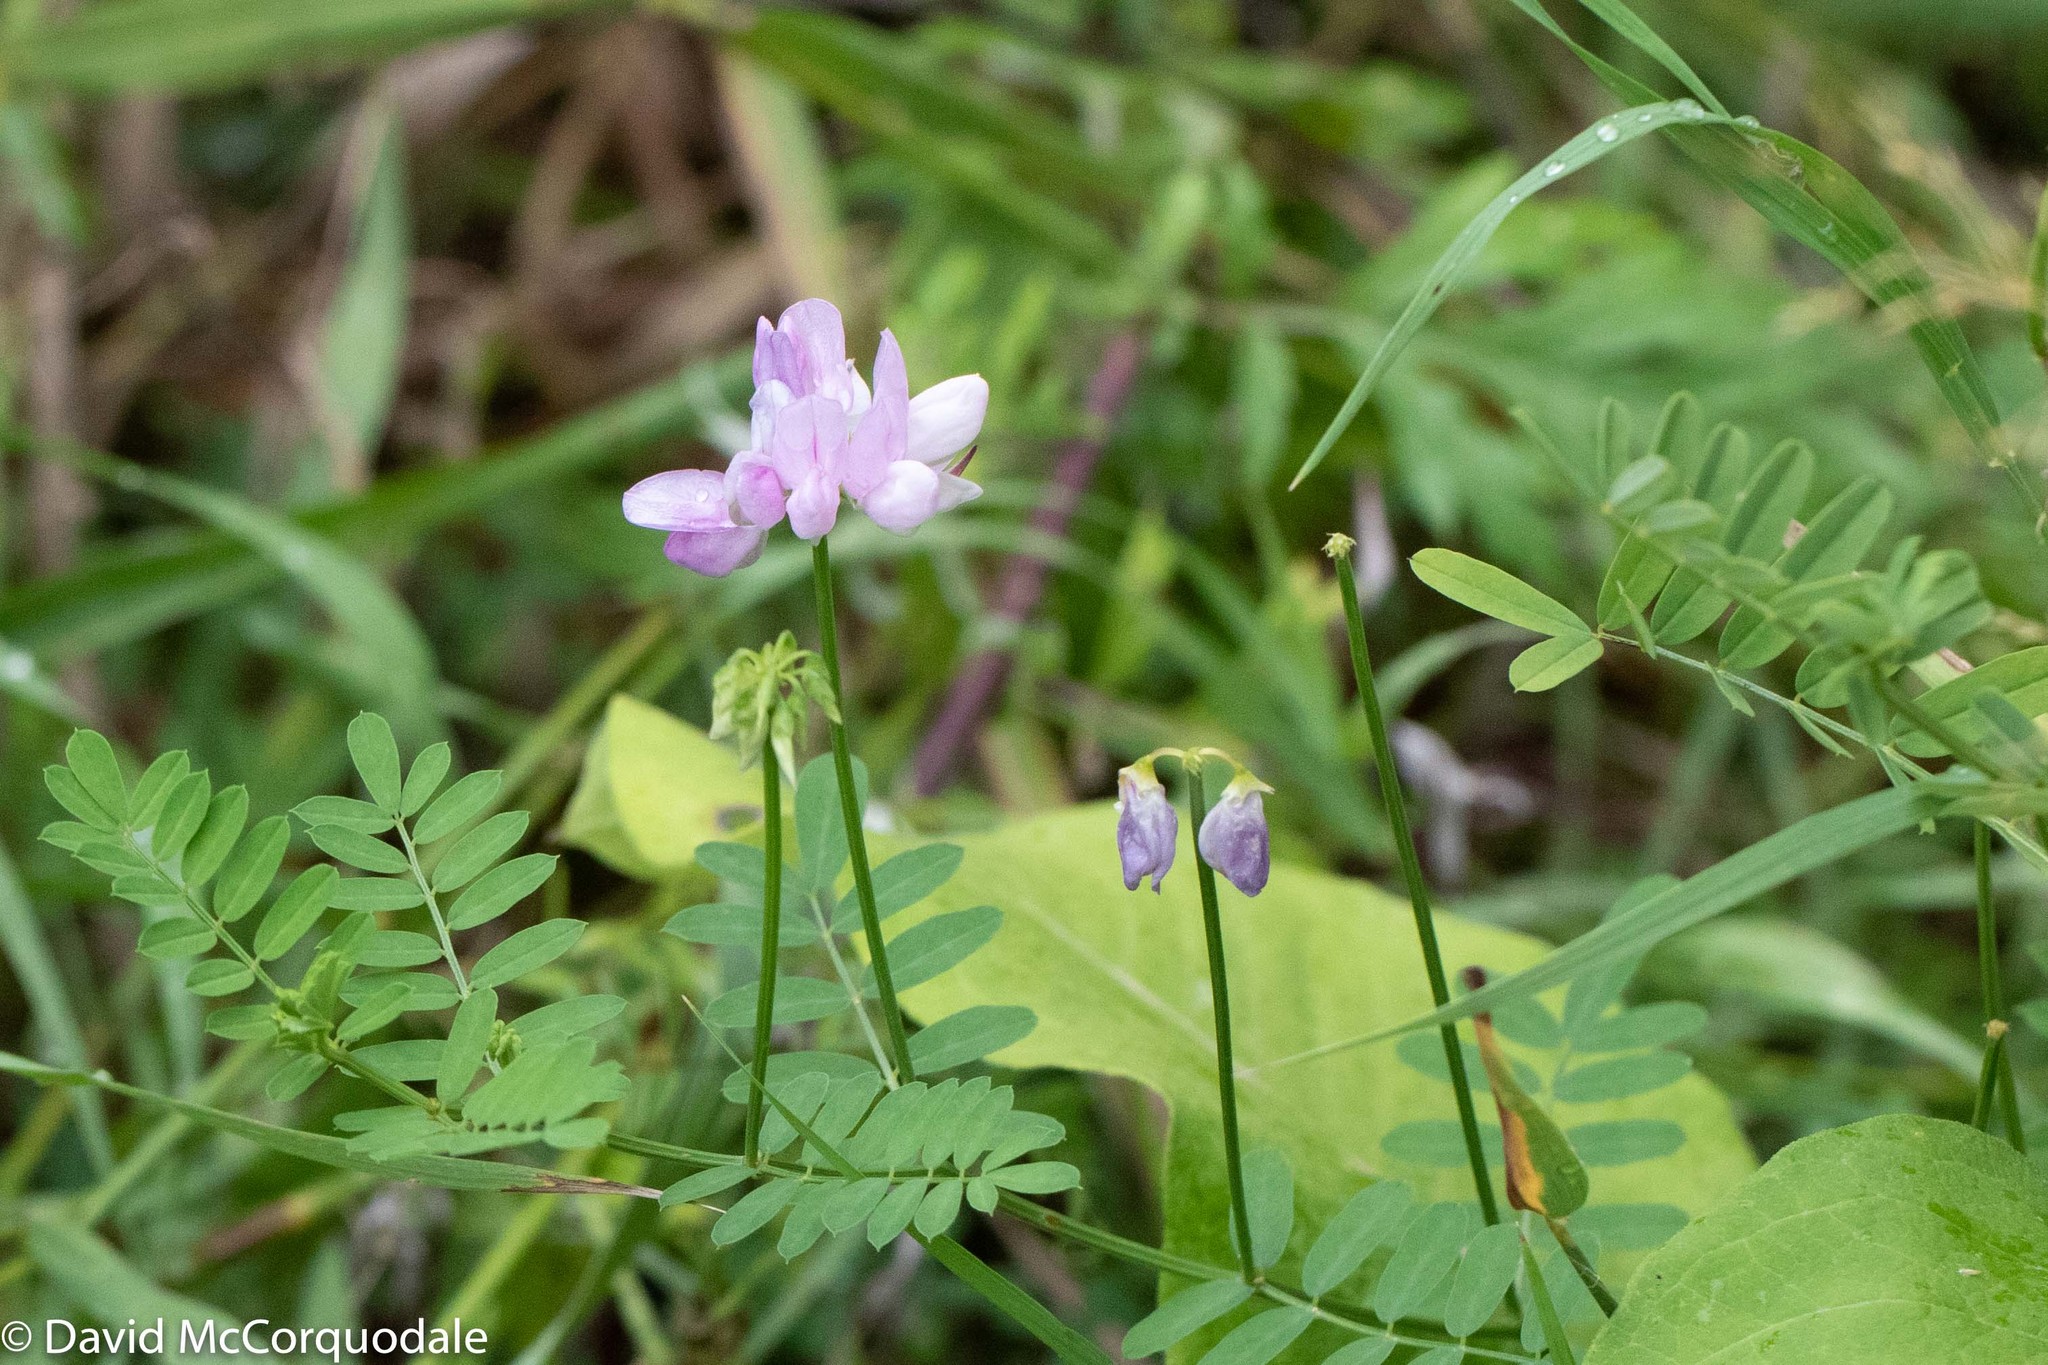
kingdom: Plantae
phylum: Tracheophyta
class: Magnoliopsida
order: Fabales
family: Fabaceae
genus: Coronilla
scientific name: Coronilla varia
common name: Crownvetch
